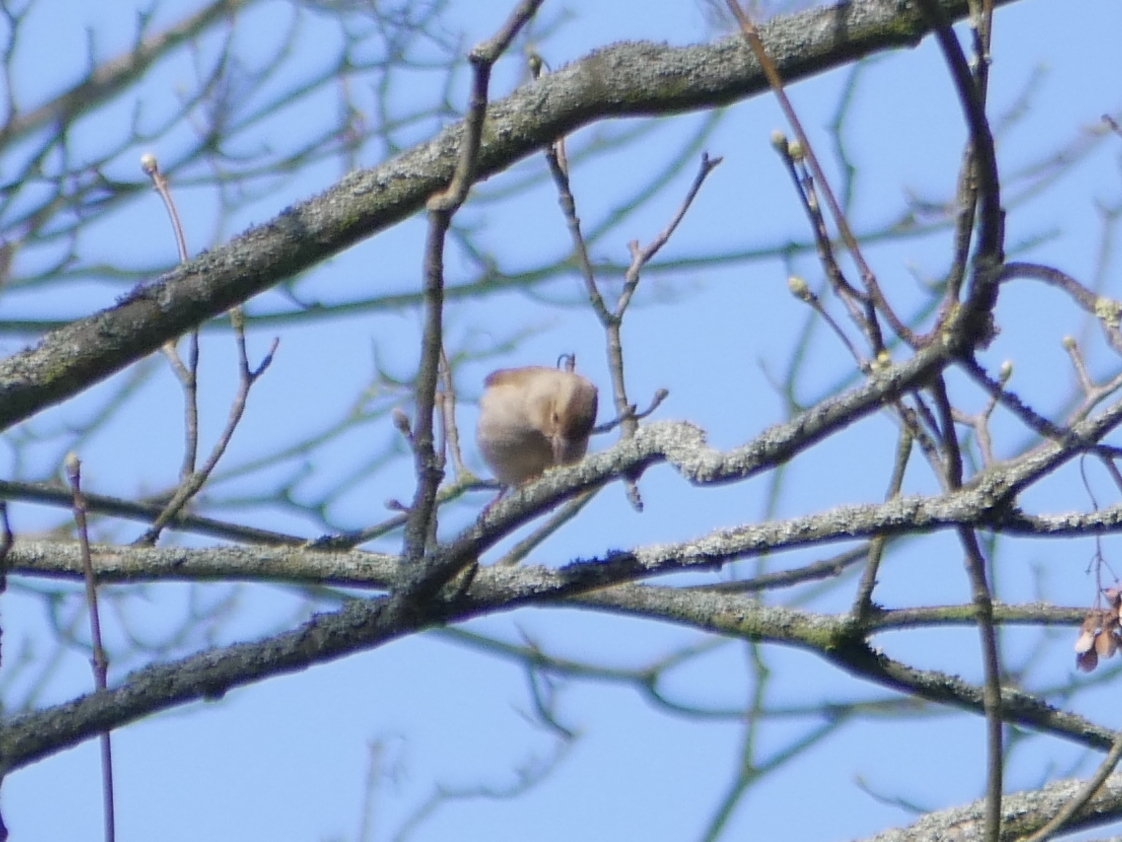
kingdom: Animalia
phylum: Chordata
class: Aves
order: Passeriformes
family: Fringillidae
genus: Fringilla
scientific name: Fringilla coelebs
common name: Common chaffinch
